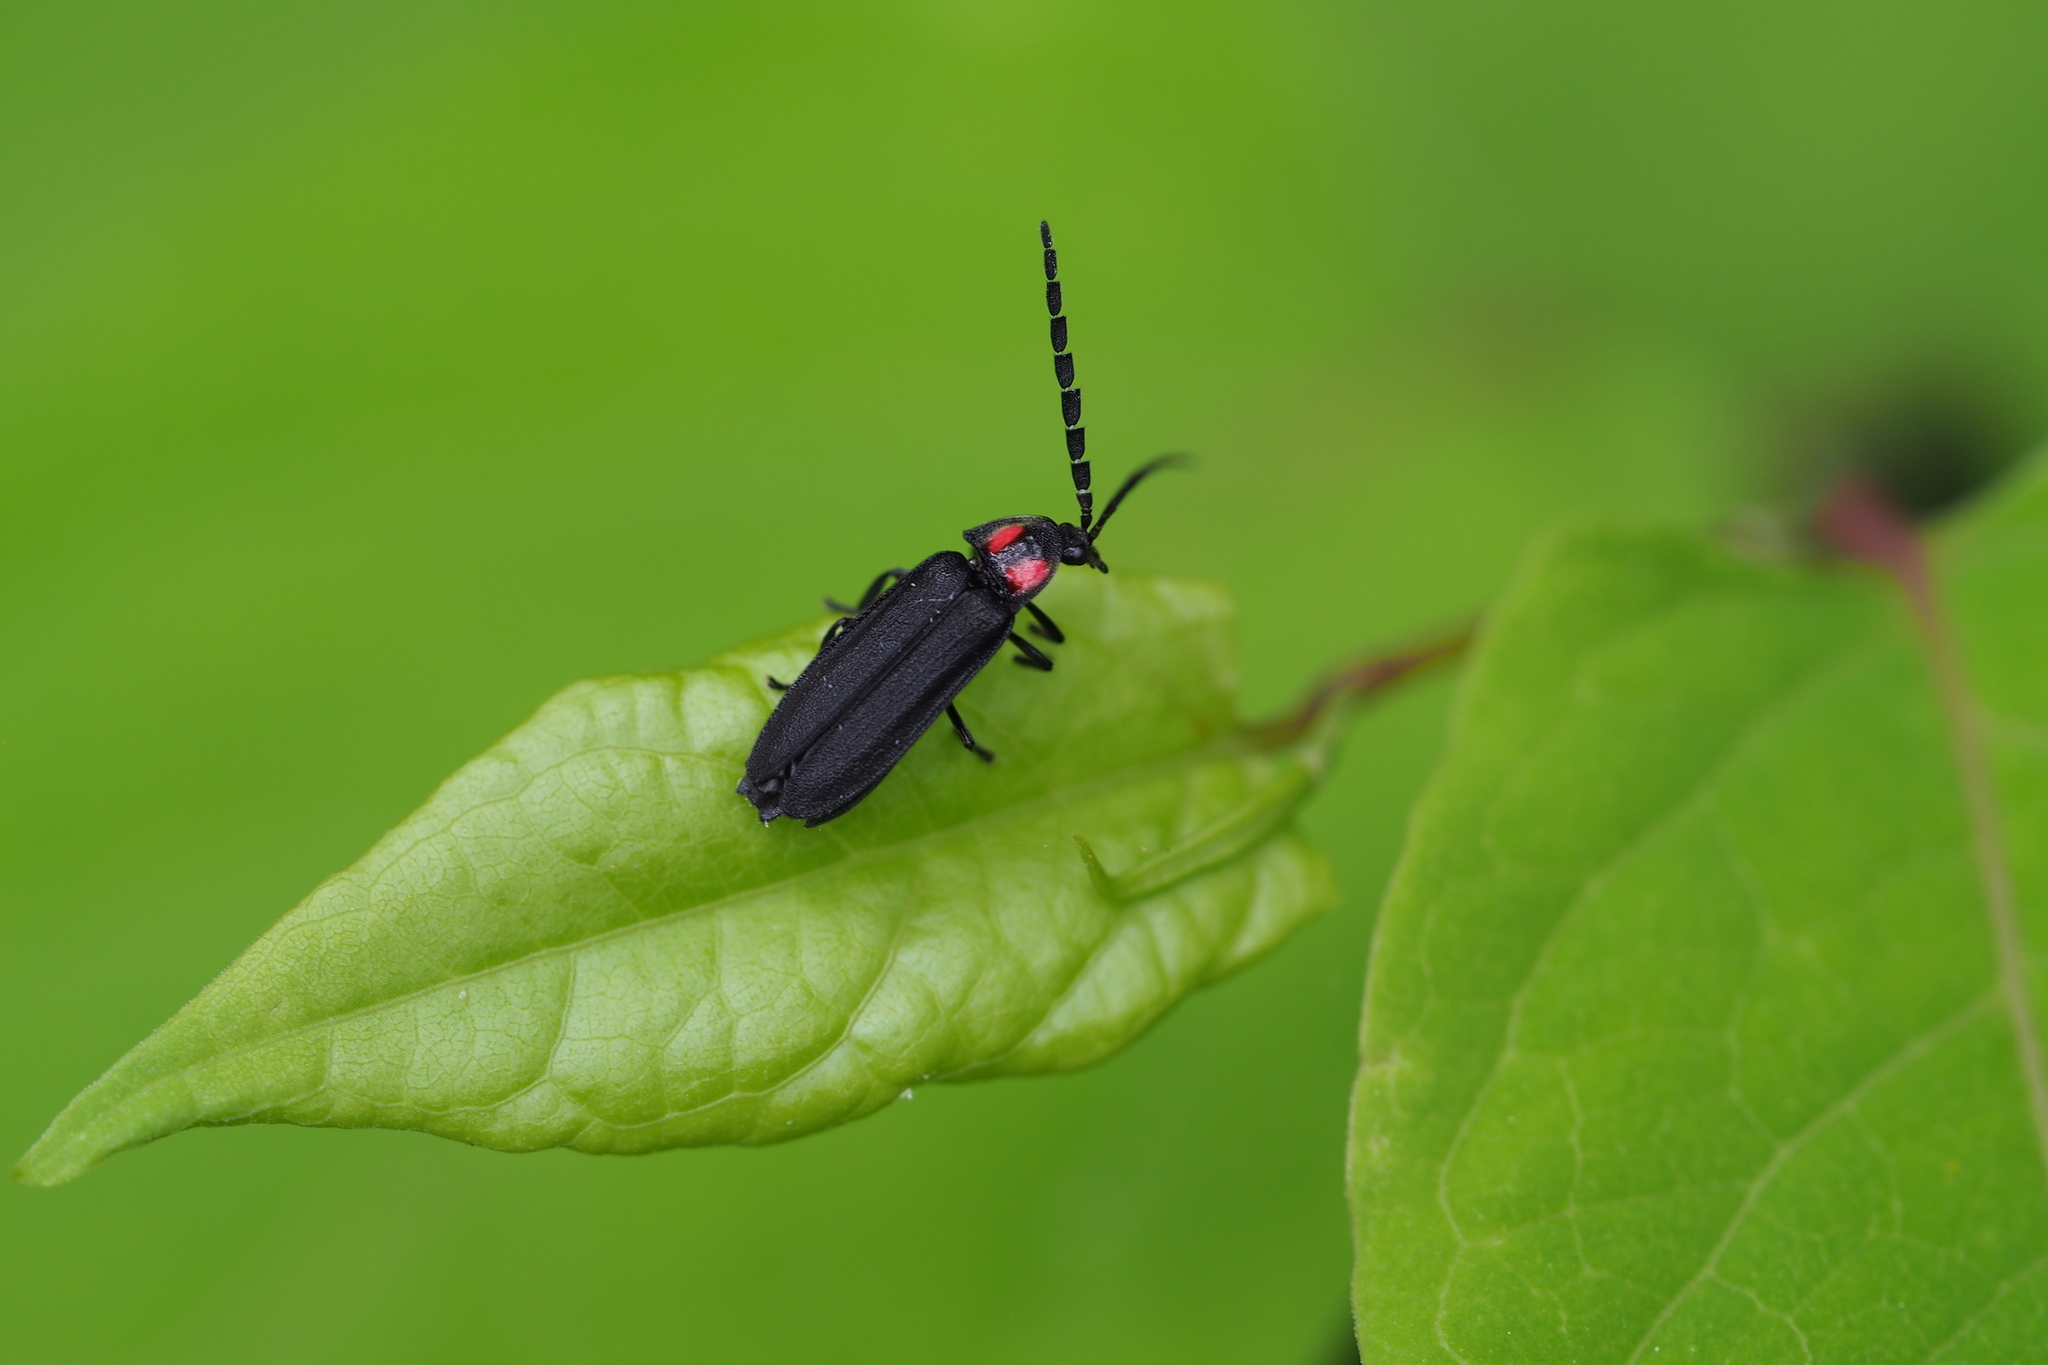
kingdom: Animalia
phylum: Arthropoda
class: Insecta
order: Coleoptera
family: Lampyridae
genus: Lucidina
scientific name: Lucidina biplagiata
